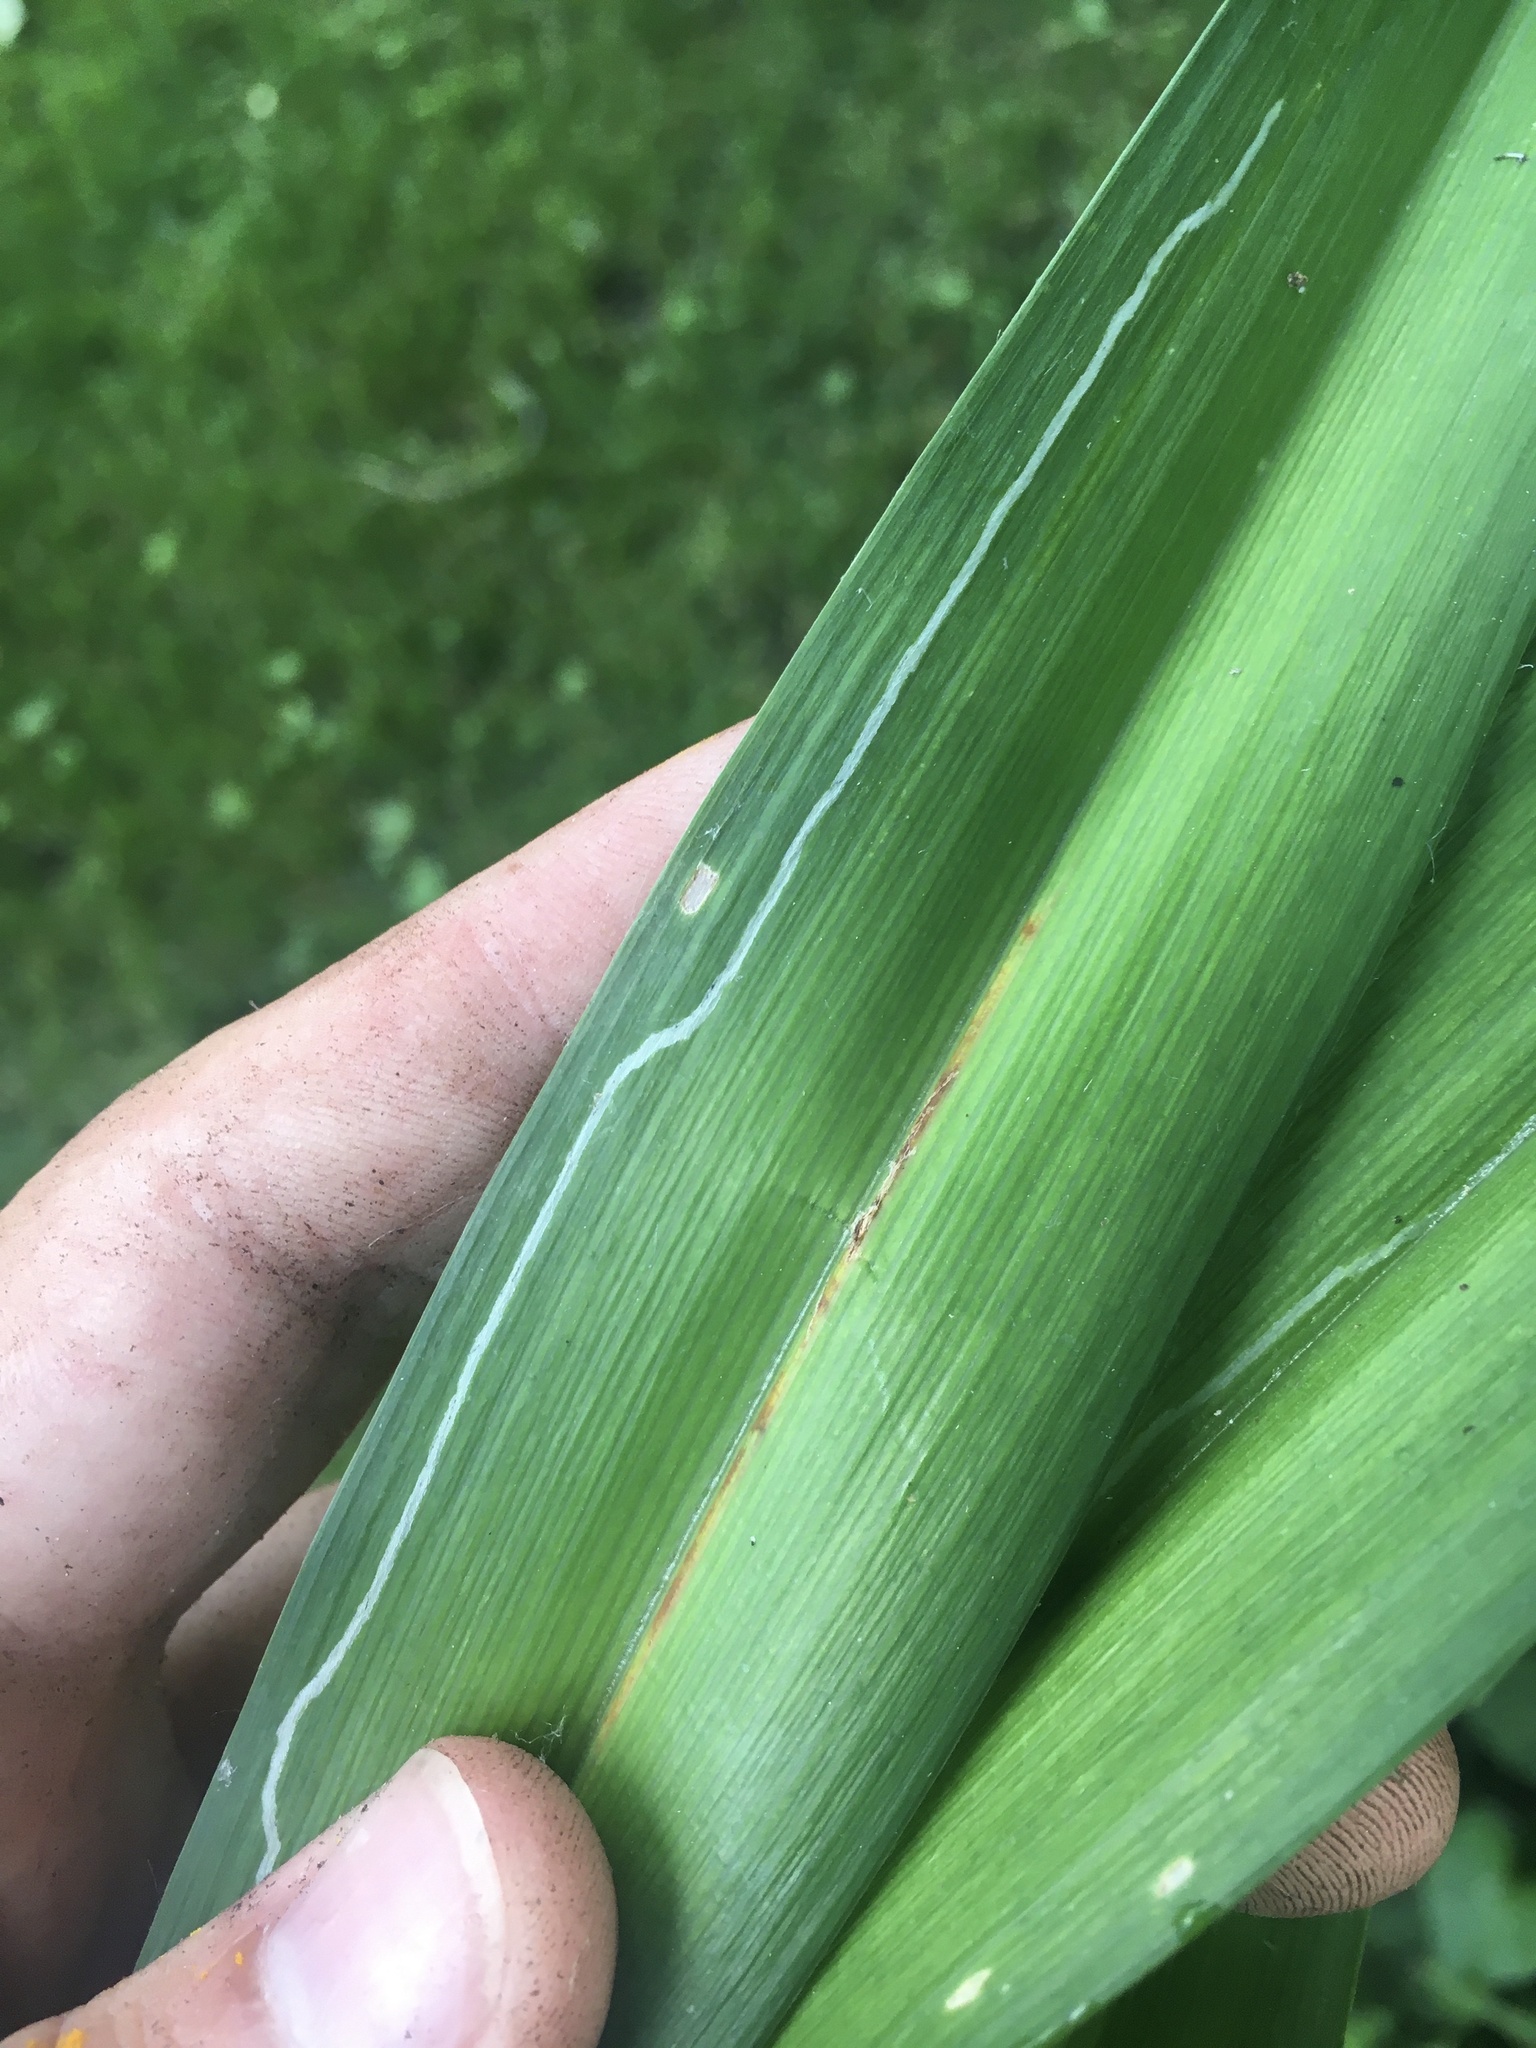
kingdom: Animalia
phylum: Arthropoda
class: Insecta
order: Diptera
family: Agromyzidae
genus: Ophiomyia
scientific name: Ophiomyia kwansonis
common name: Daylily leafminer
